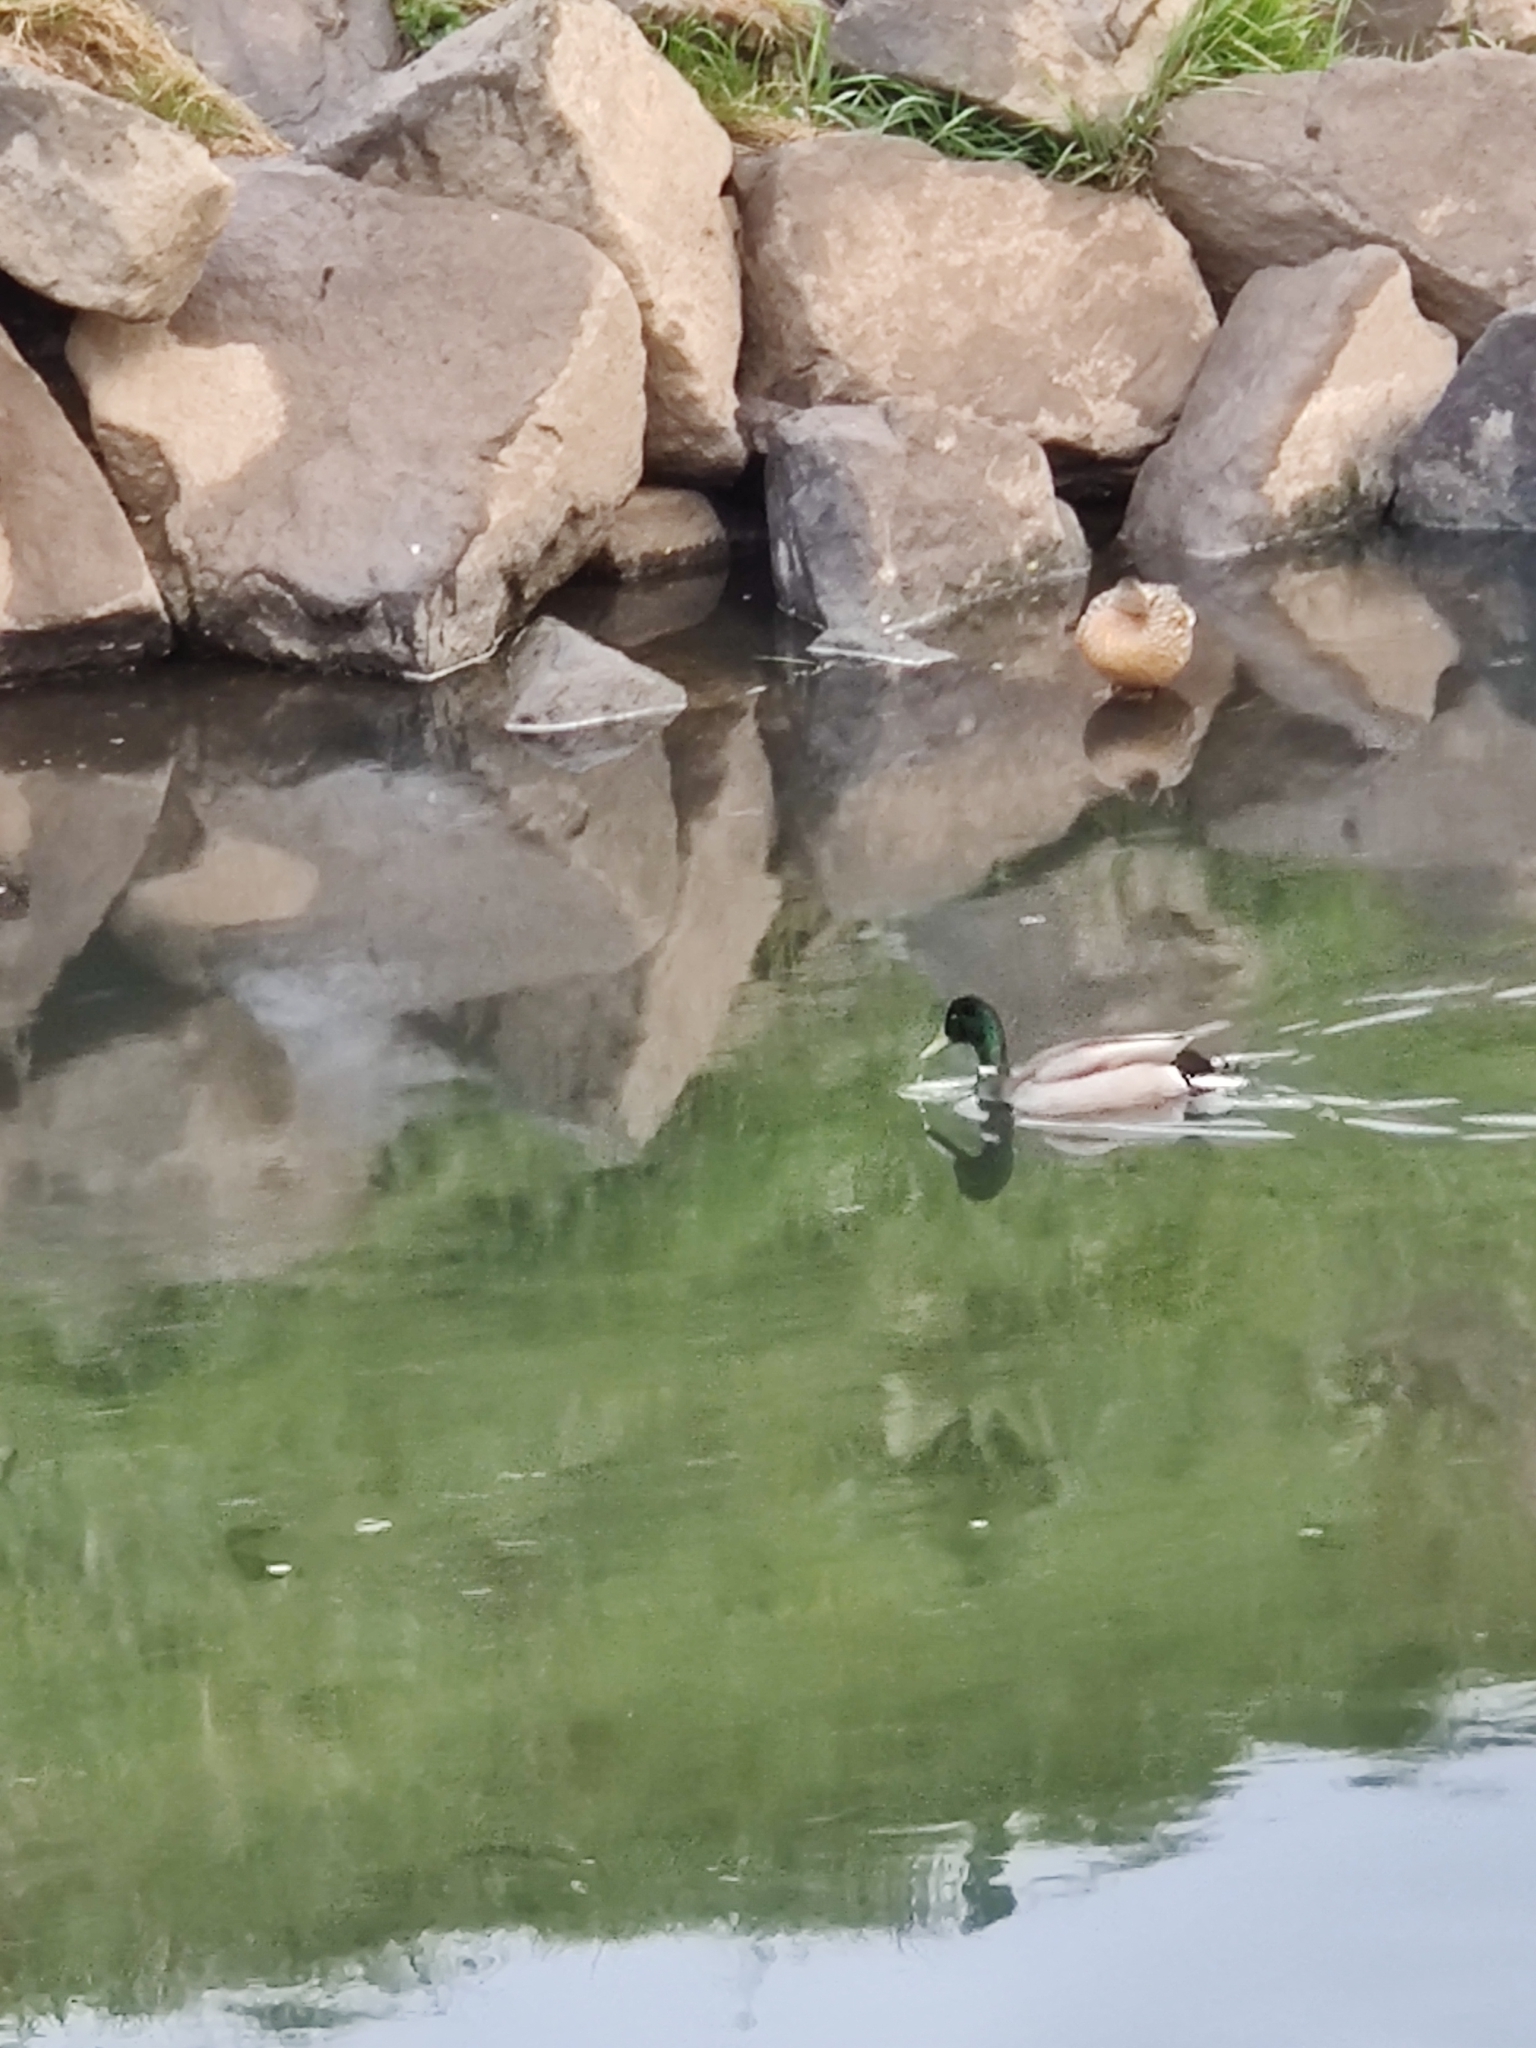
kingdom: Animalia
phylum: Chordata
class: Aves
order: Anseriformes
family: Anatidae
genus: Anas
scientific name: Anas platyrhynchos
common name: Mallard
